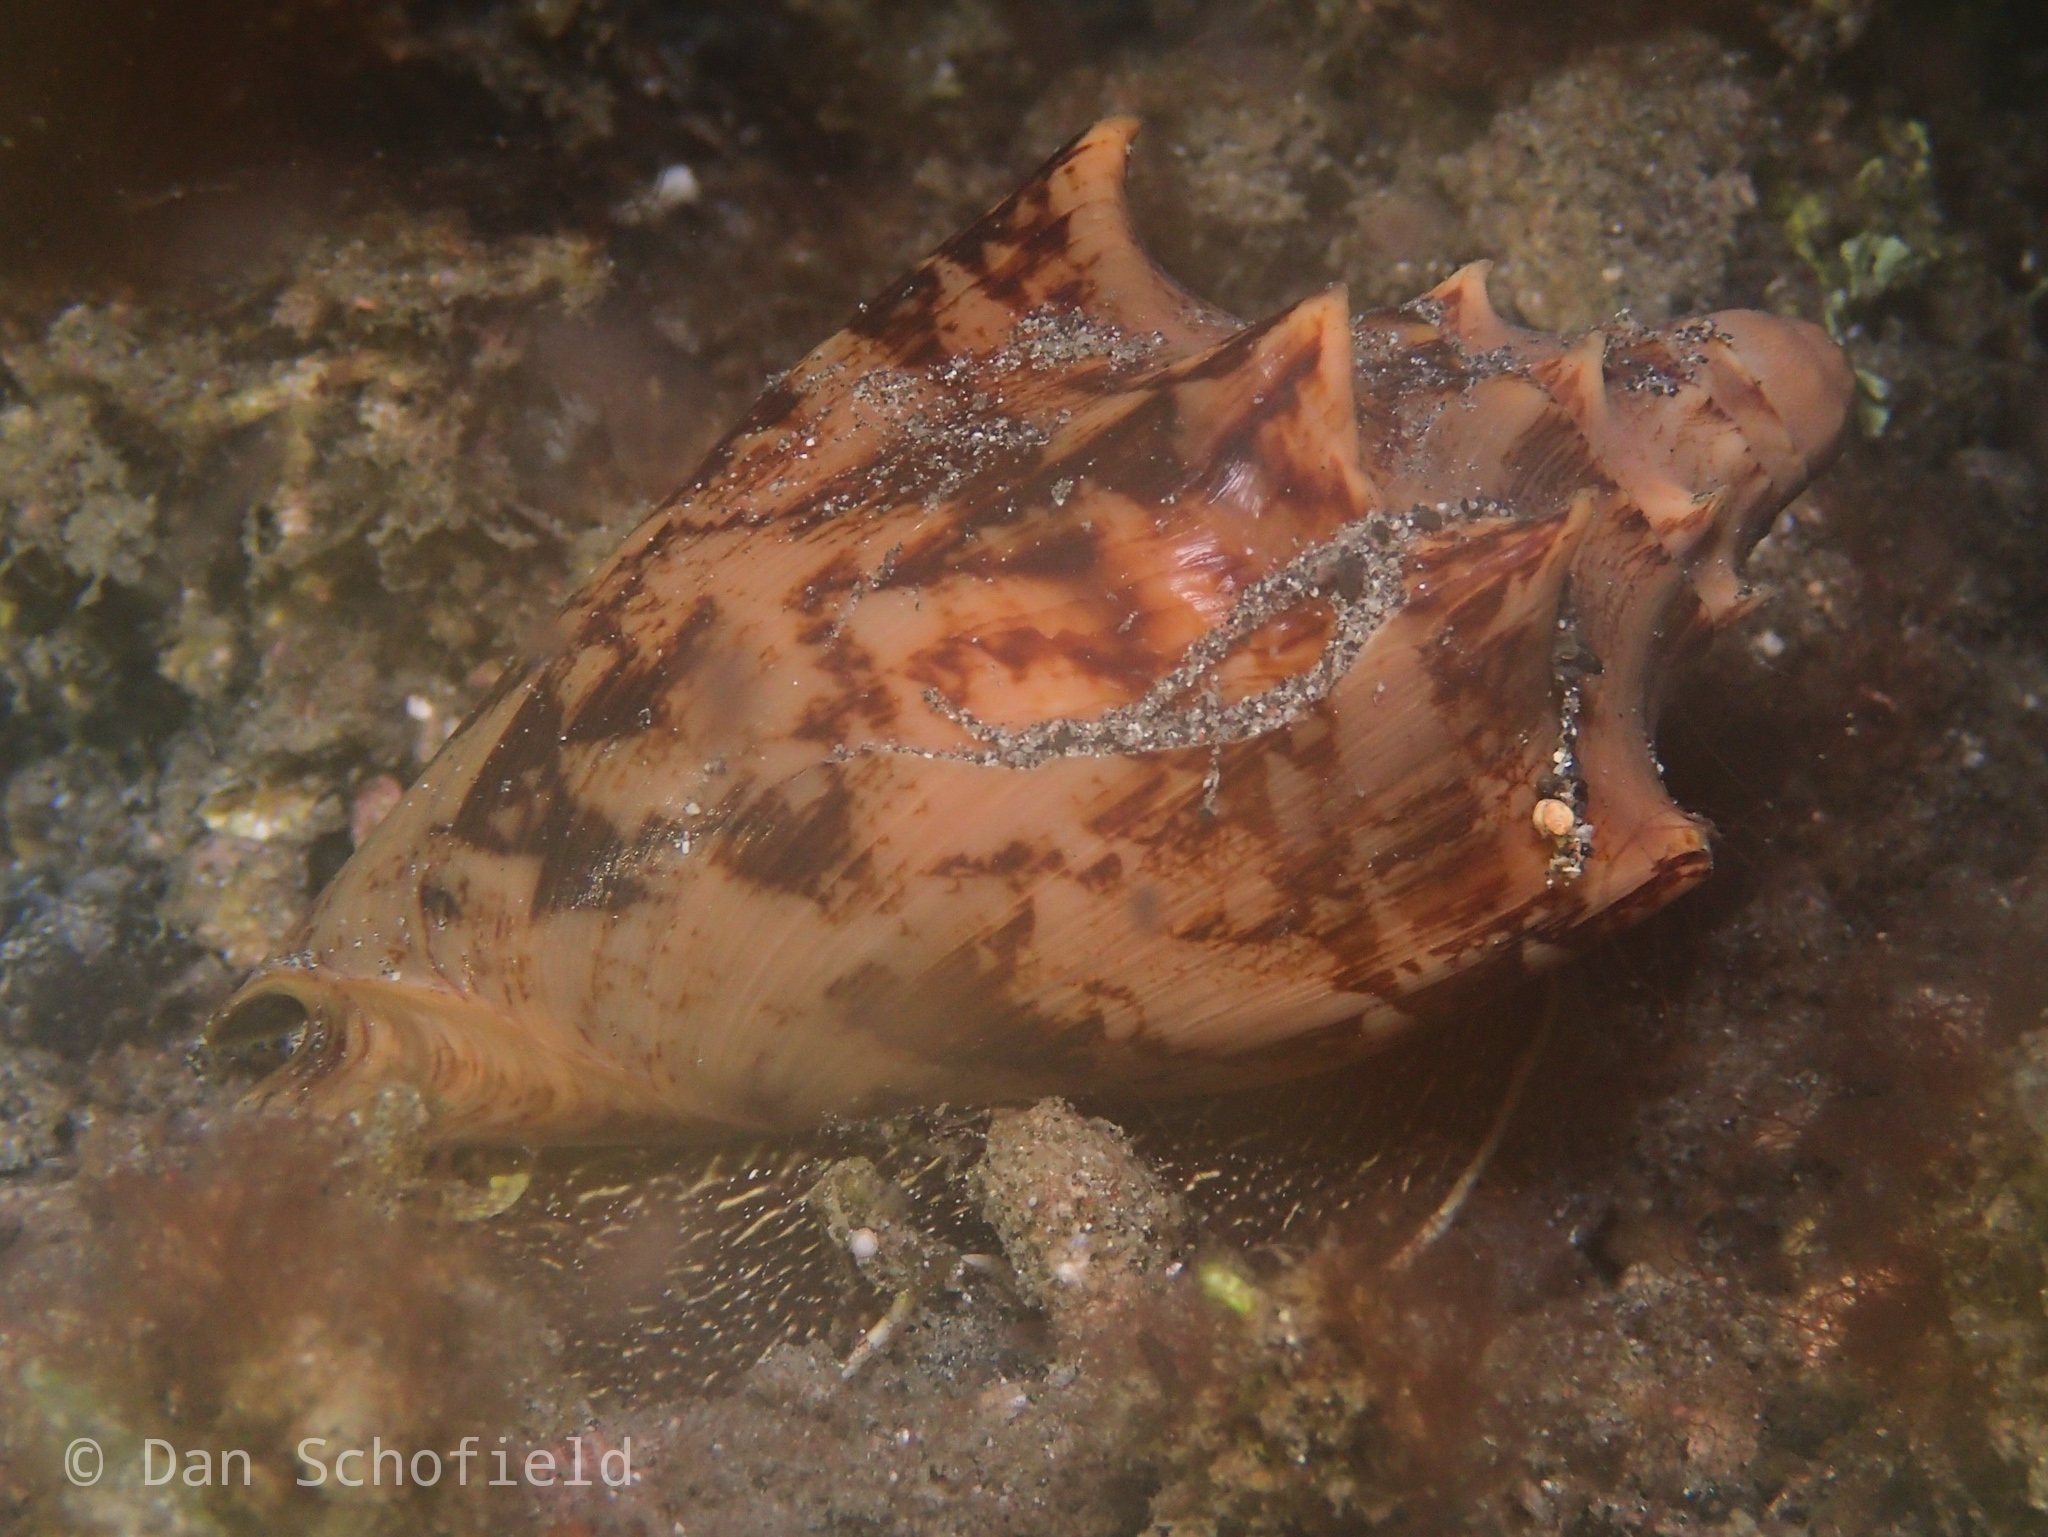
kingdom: Animalia
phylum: Mollusca
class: Gastropoda
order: Neogastropoda
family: Volutidae
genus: Cymbiola
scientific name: Cymbiola vespertilio
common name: Bat volute
